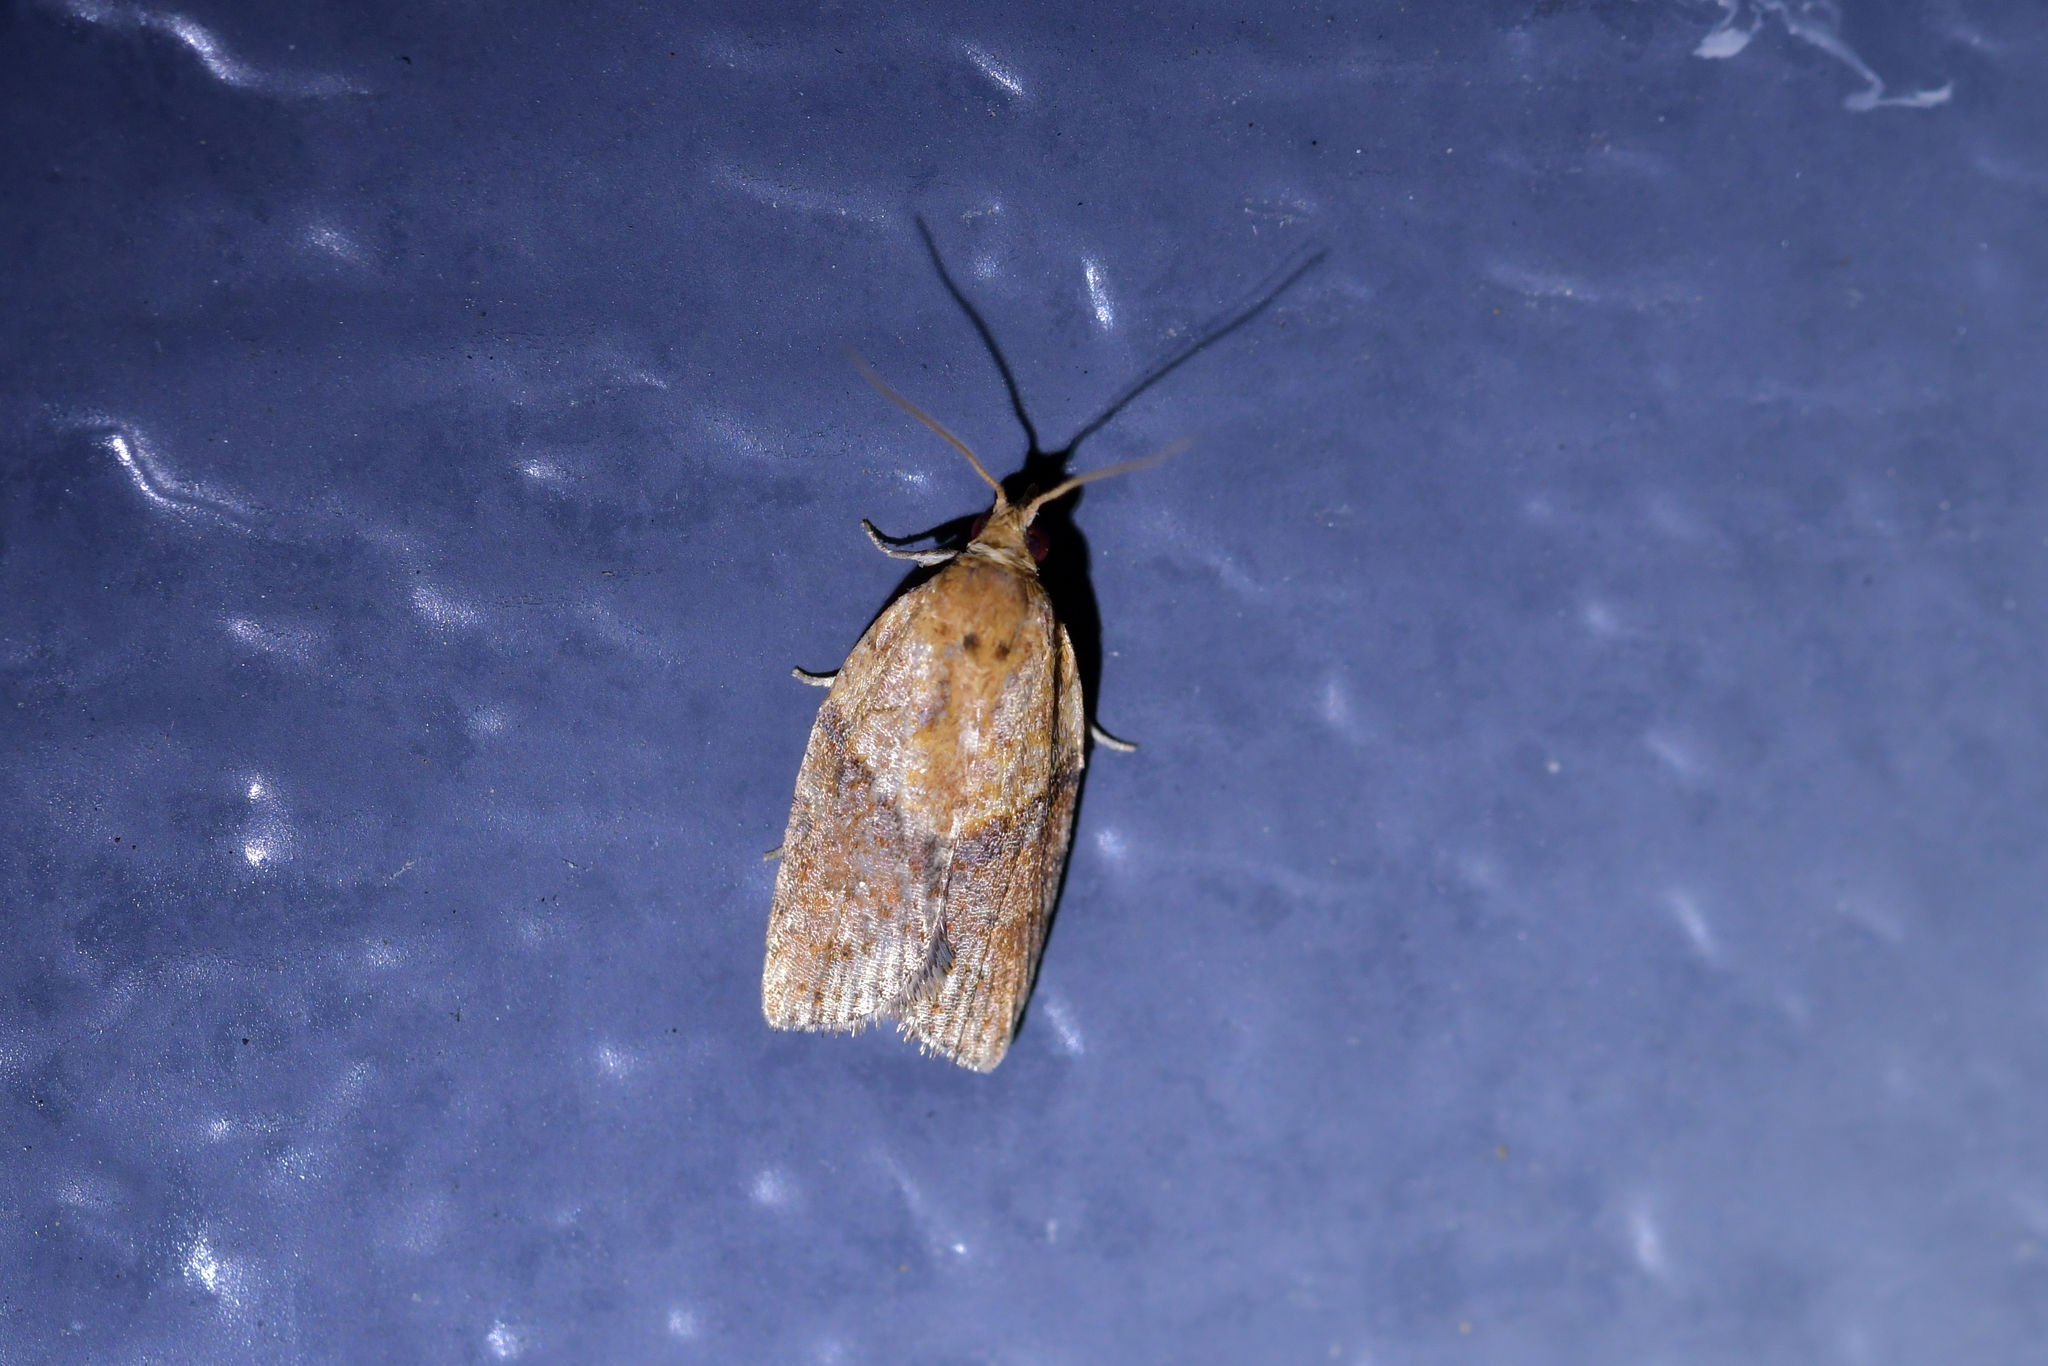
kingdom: Animalia
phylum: Arthropoda
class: Insecta
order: Lepidoptera
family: Tortricidae
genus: Epiphyas
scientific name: Epiphyas postvittana
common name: Light brown apple moth
